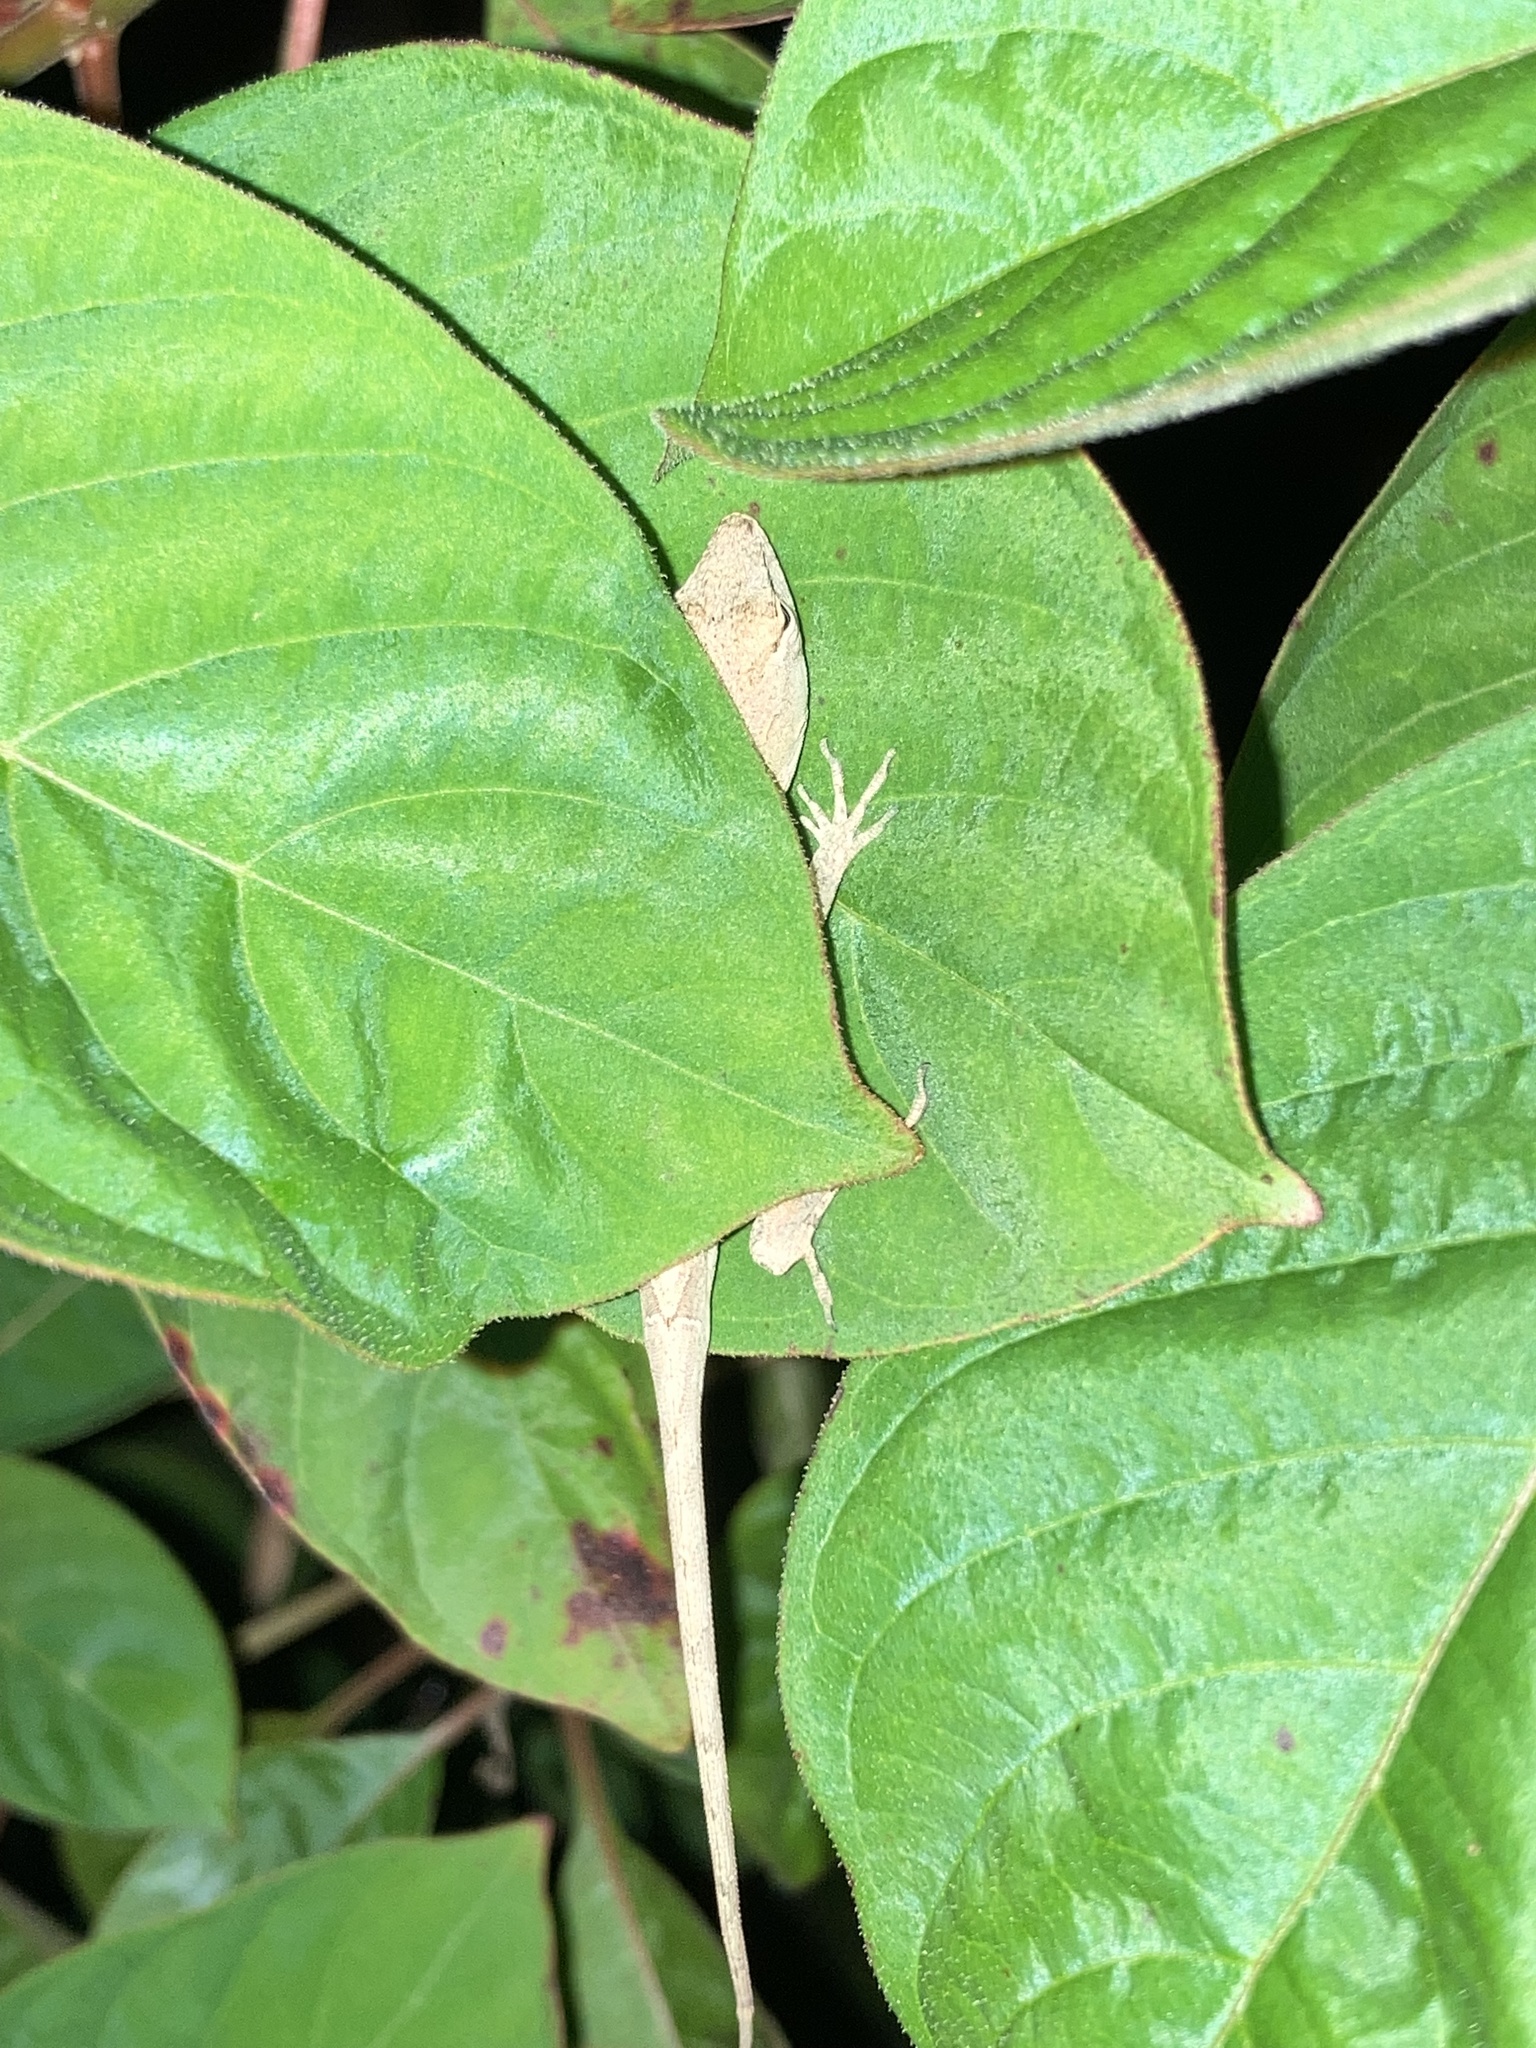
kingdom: Animalia
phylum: Chordata
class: Squamata
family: Dactyloidae
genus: Anolis
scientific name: Anolis sagrei
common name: Brown anole
